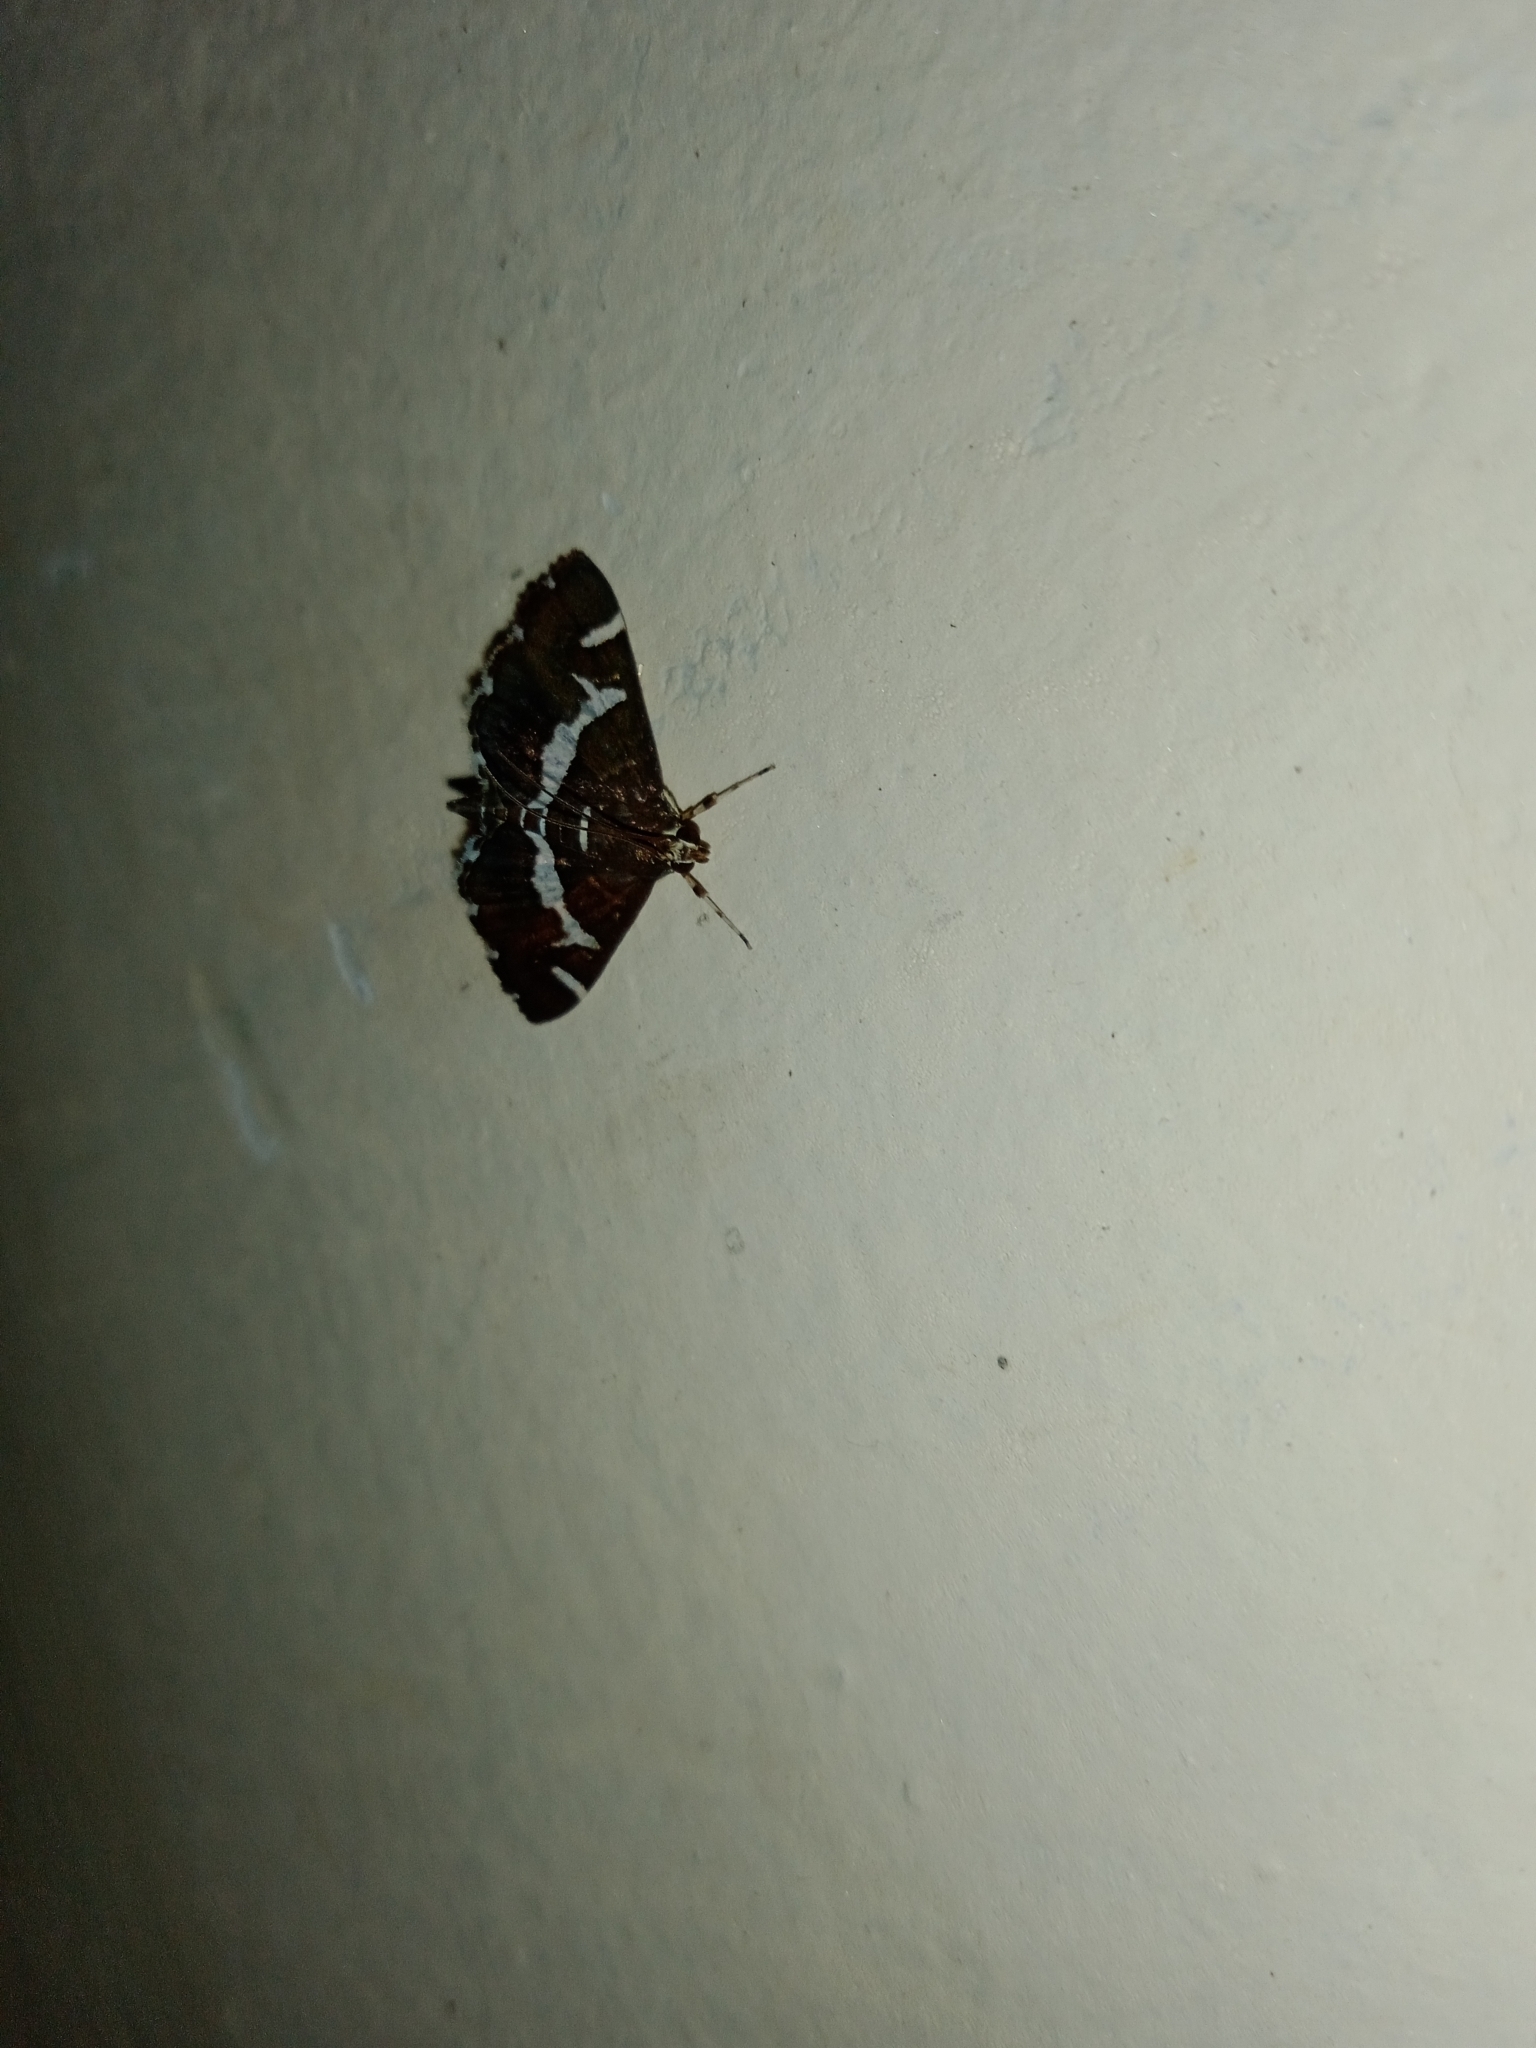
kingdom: Animalia
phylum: Arthropoda
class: Insecta
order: Lepidoptera
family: Crambidae
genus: Spoladea
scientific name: Spoladea recurvalis
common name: Beet webworm moth
